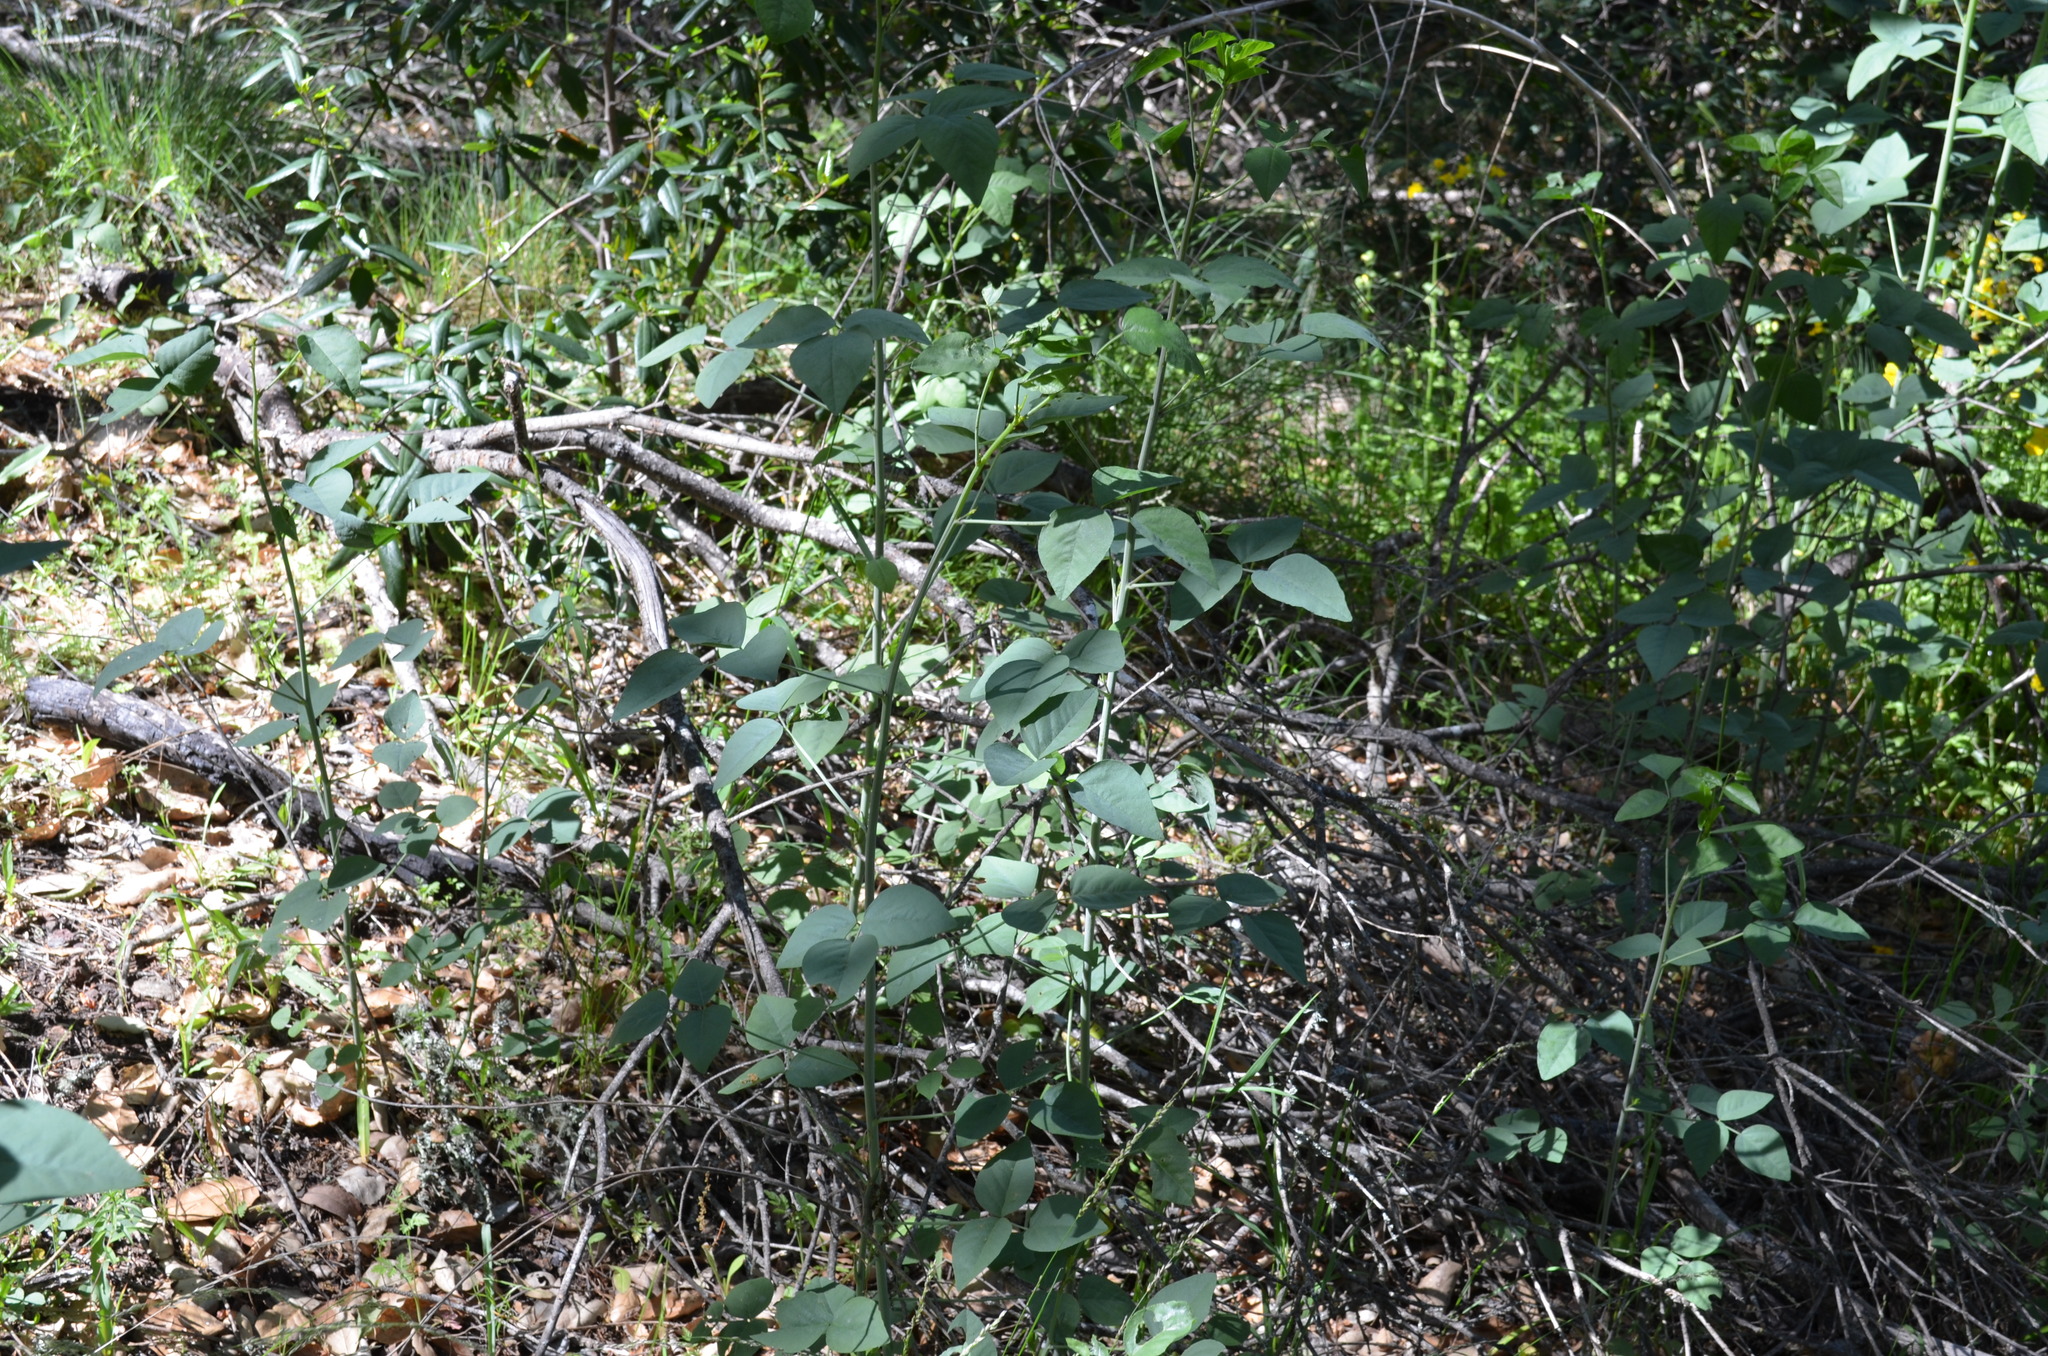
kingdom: Plantae
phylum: Tracheophyta
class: Magnoliopsida
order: Fabales
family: Fabaceae
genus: Hoita
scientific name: Hoita macrostachya
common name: Leatherroot
